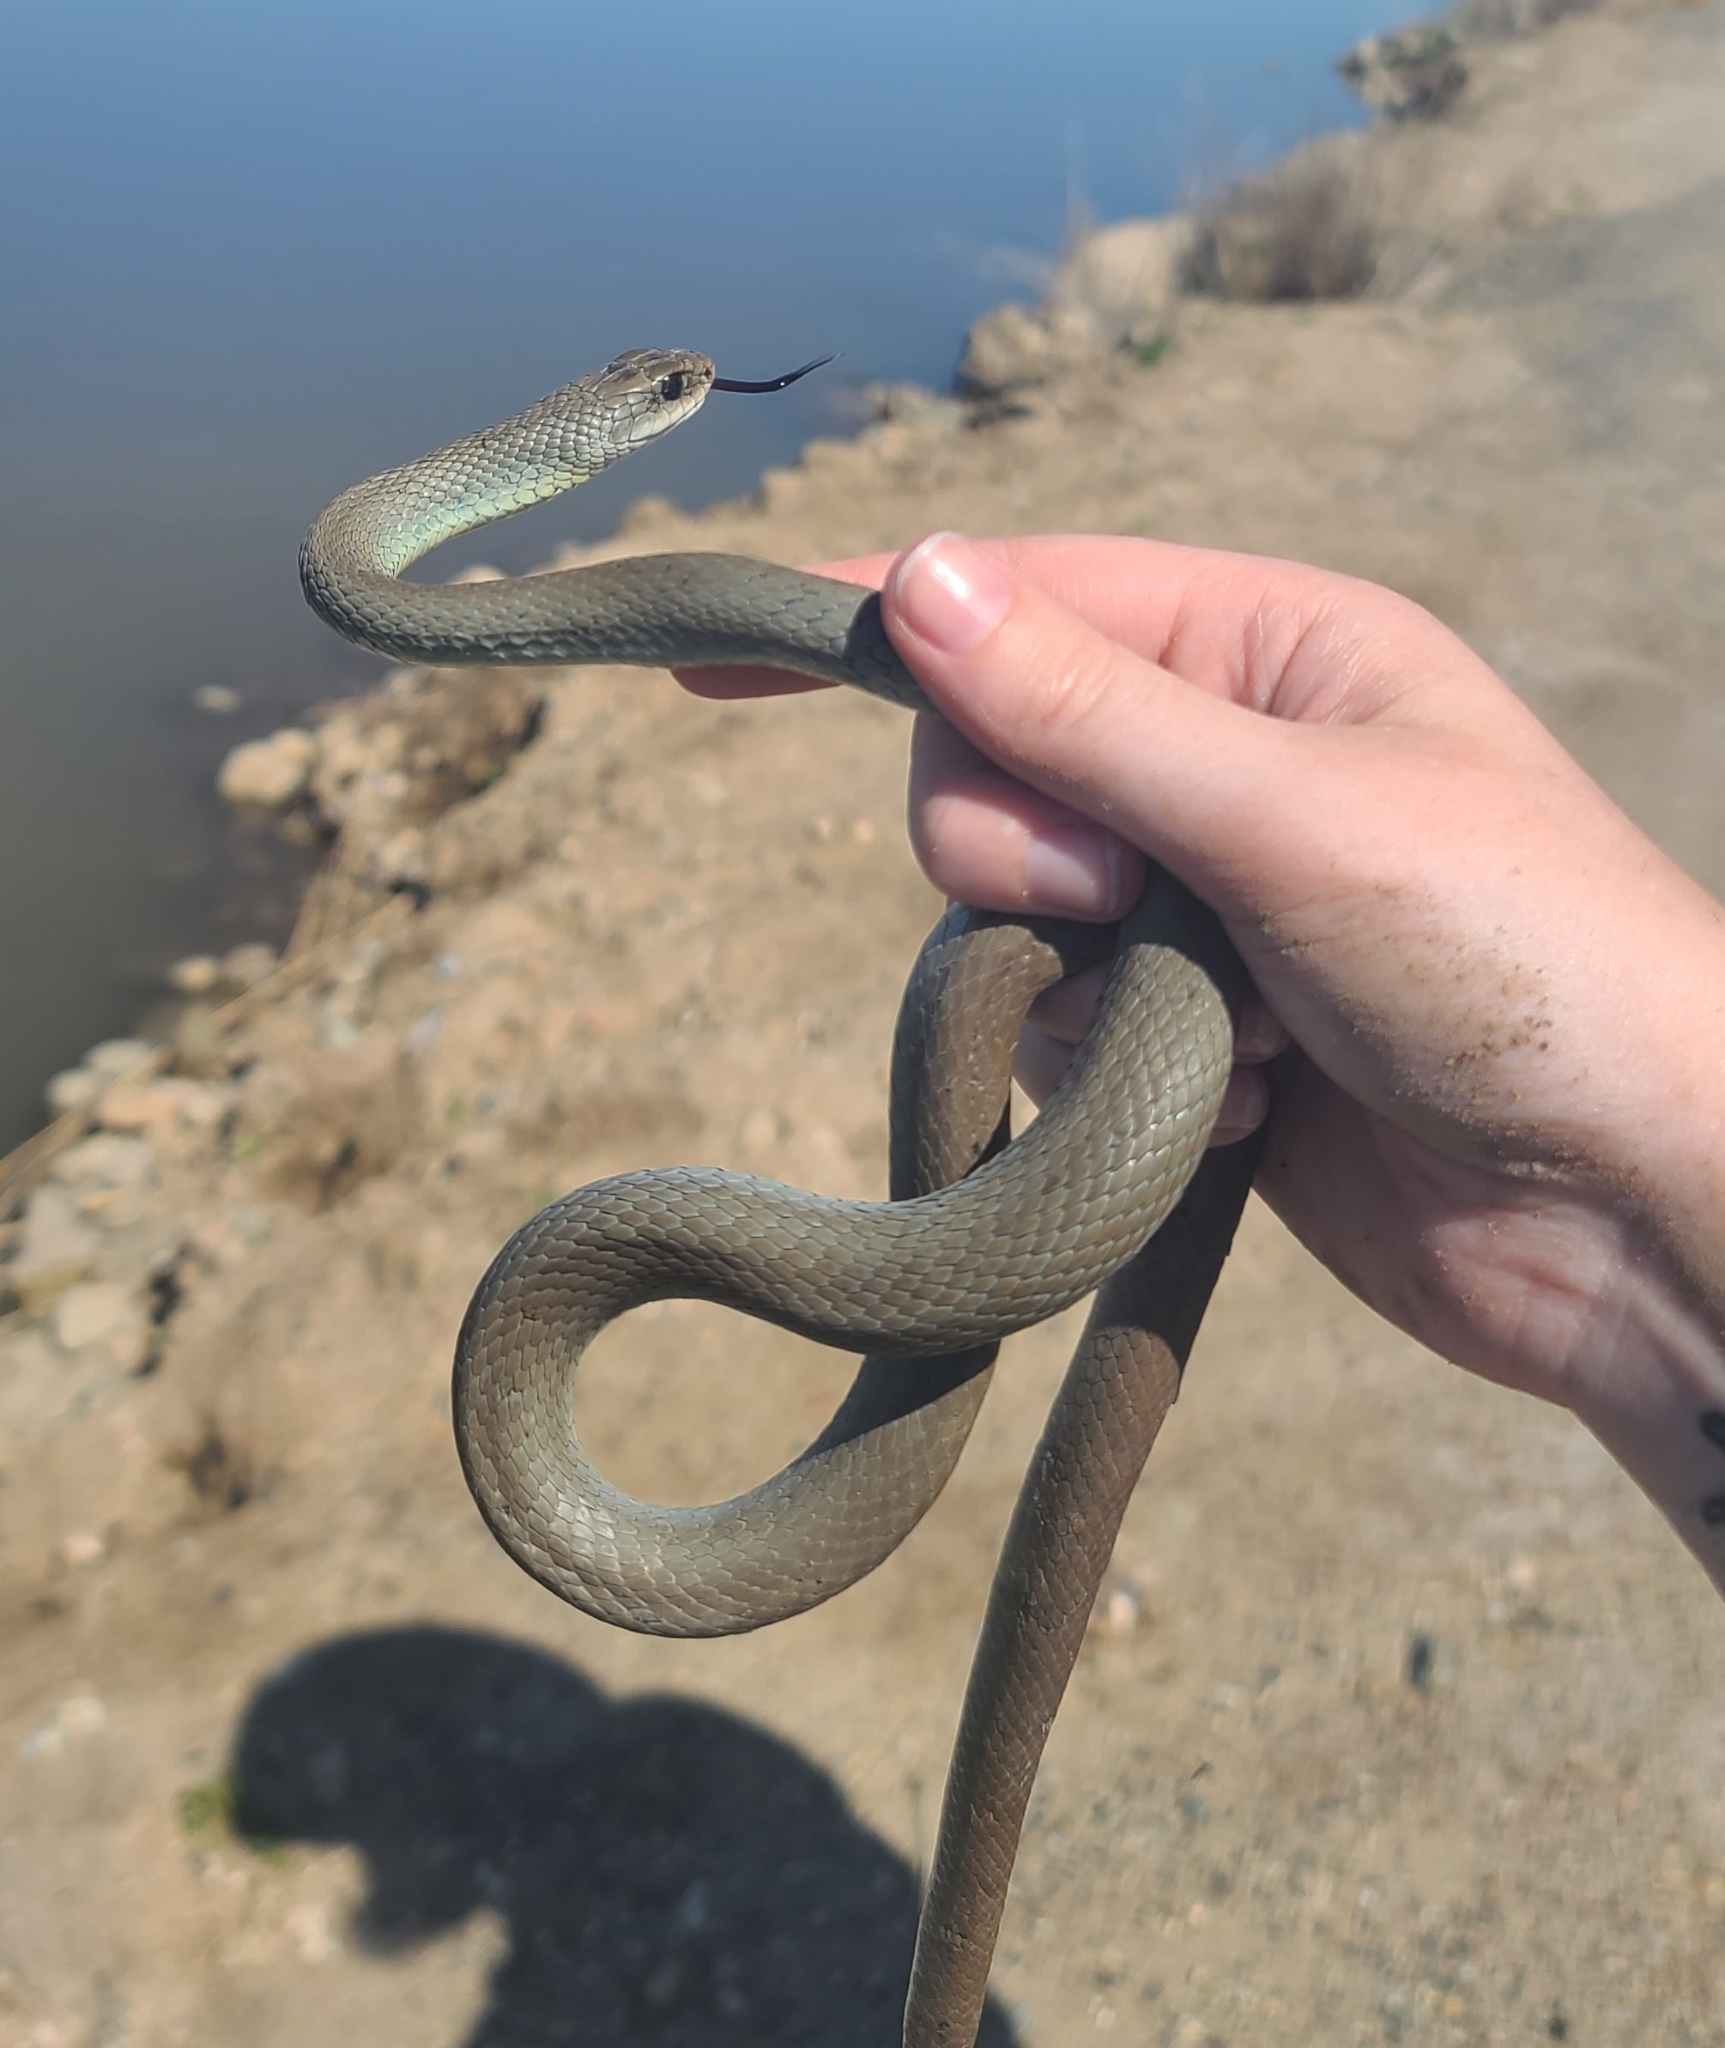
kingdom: Animalia
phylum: Chordata
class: Squamata
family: Colubridae
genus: Coluber
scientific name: Coluber constrictor
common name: Eastern racer
